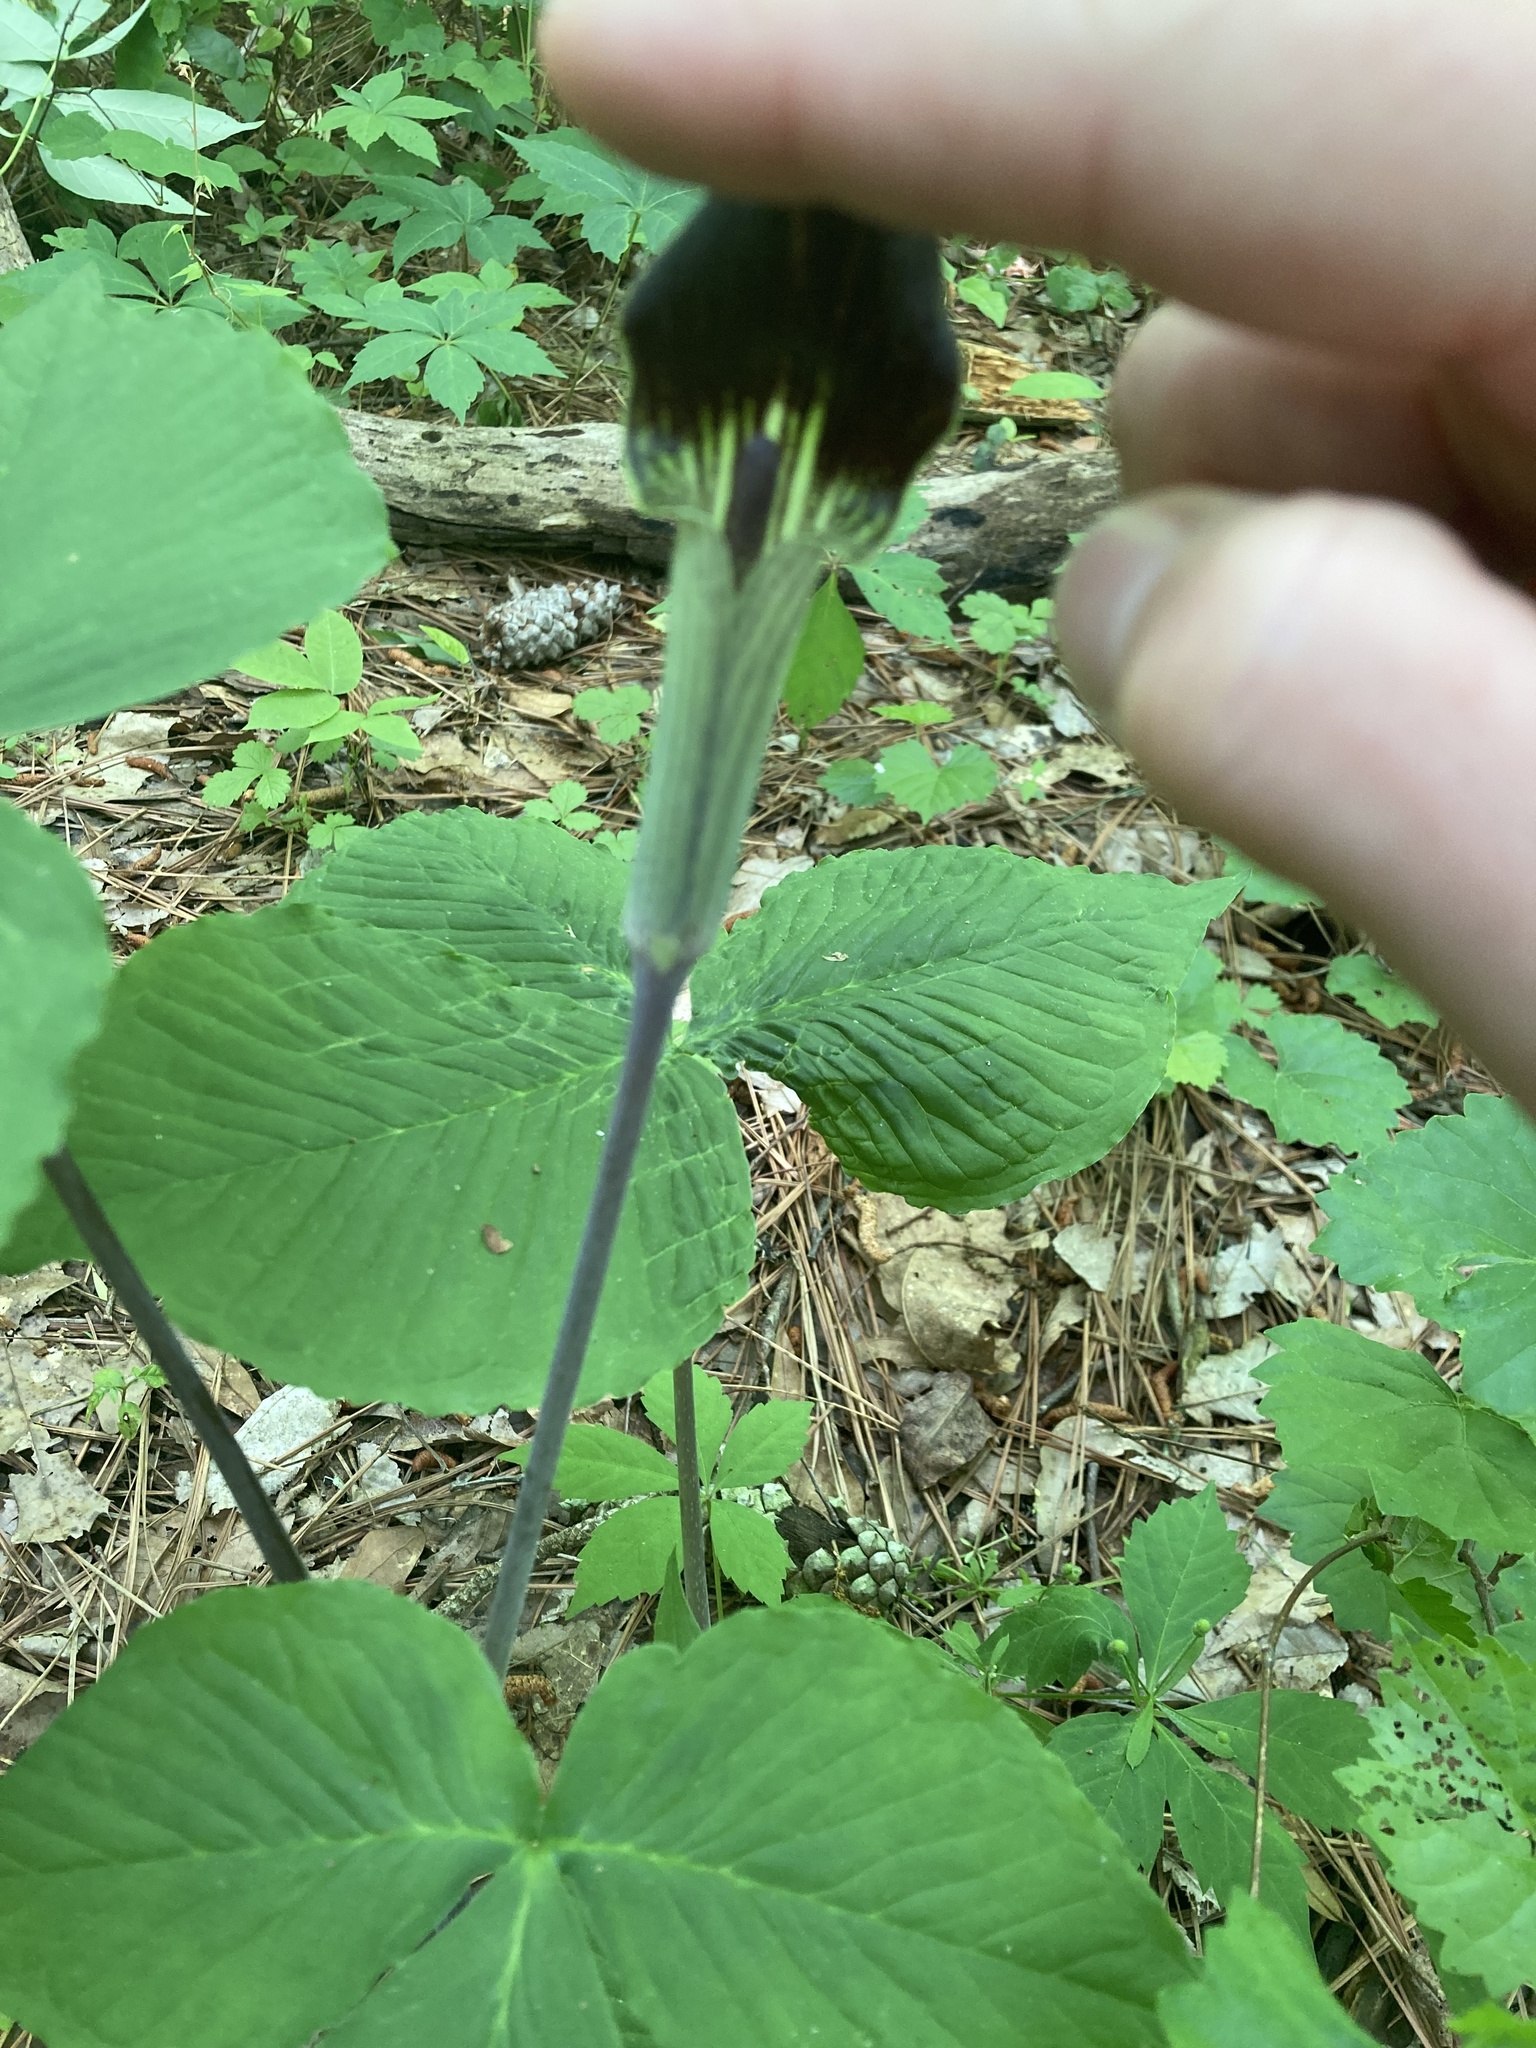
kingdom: Plantae
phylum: Tracheophyta
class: Liliopsida
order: Alismatales
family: Araceae
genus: Arisaema
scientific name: Arisaema triphyllum
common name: Jack-in-the-pulpit
